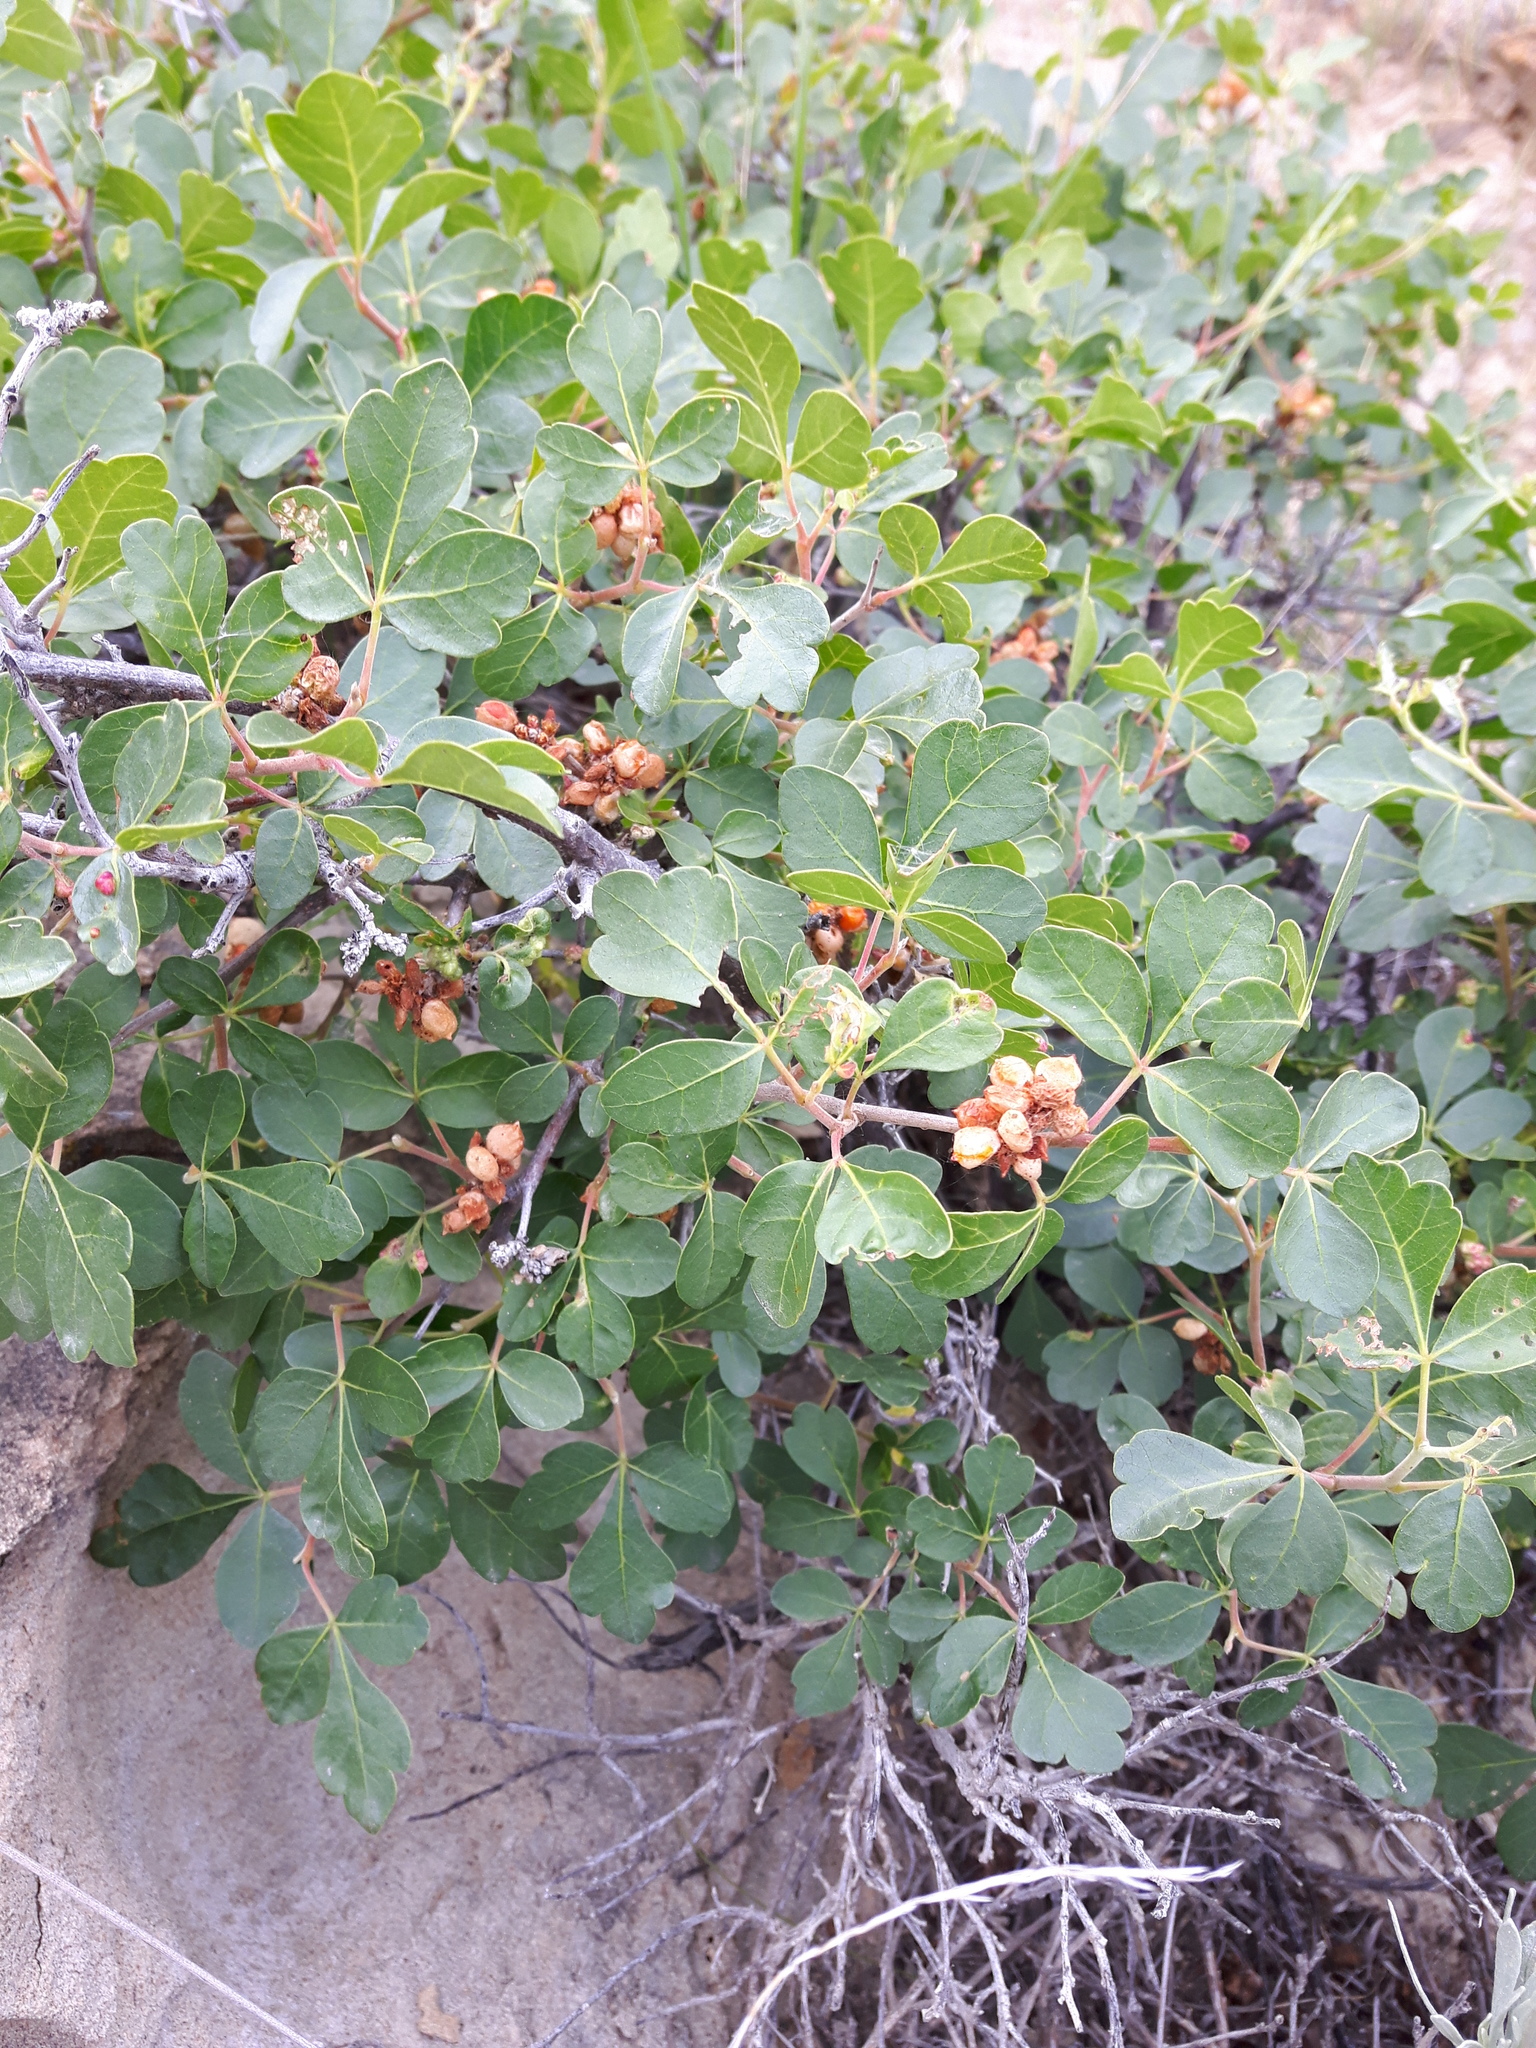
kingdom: Plantae
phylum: Tracheophyta
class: Magnoliopsida
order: Sapindales
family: Anacardiaceae
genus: Rhus
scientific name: Rhus aromatica
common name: Aromatic sumac
